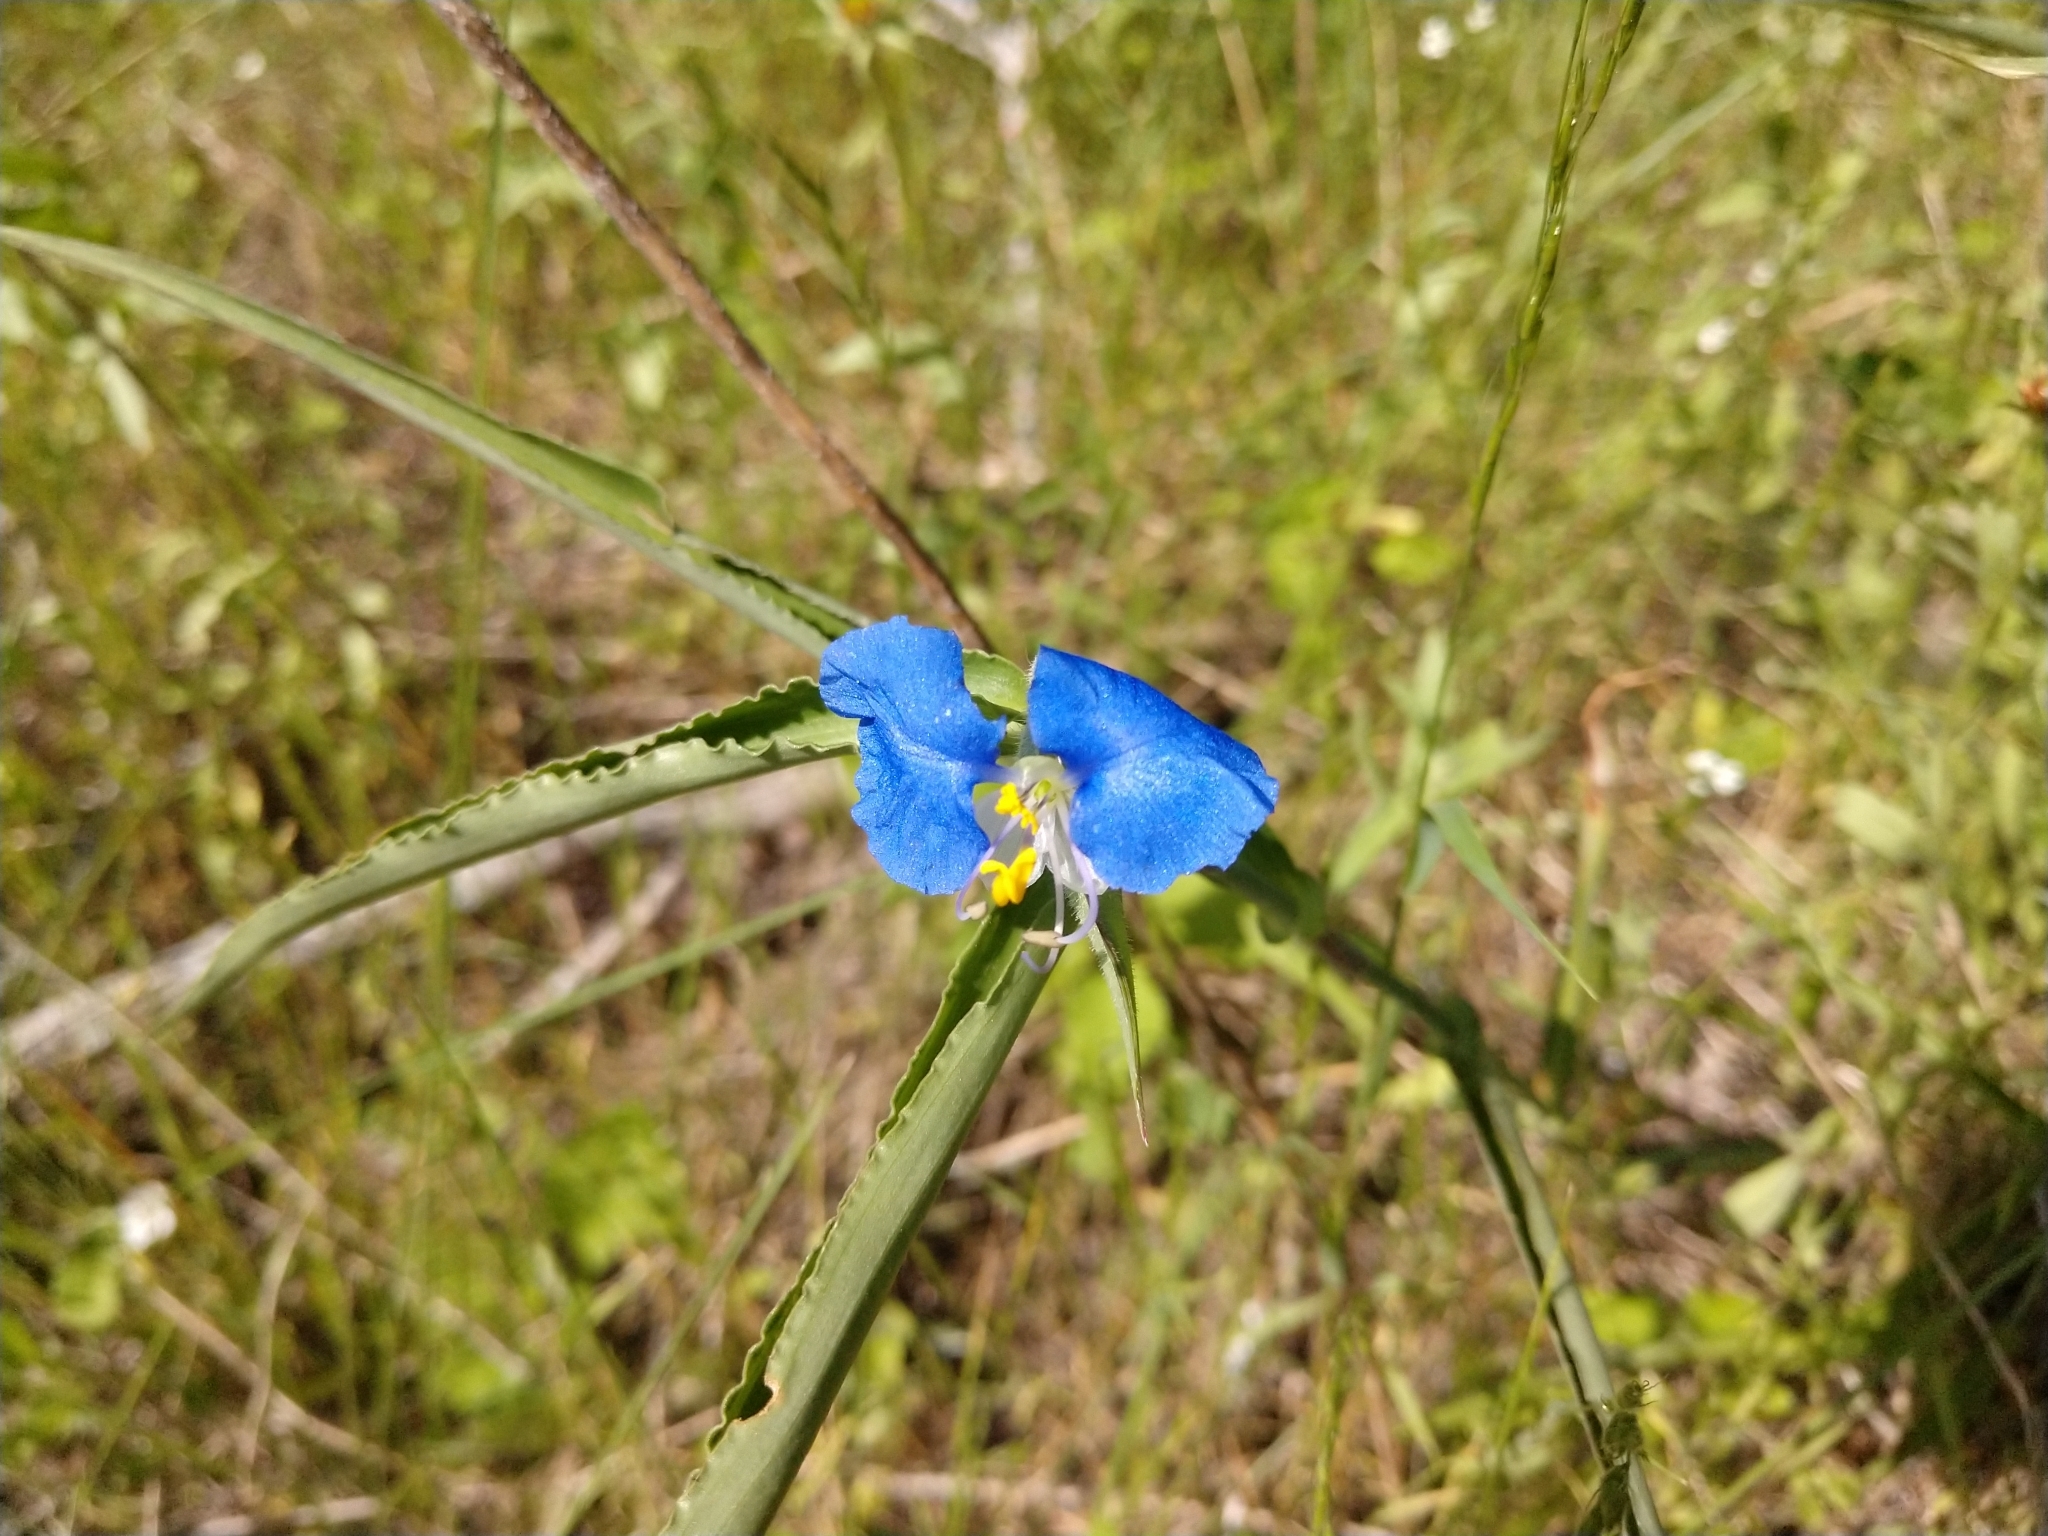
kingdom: Plantae
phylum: Tracheophyta
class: Liliopsida
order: Commelinales
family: Commelinaceae
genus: Commelina
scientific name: Commelina erecta
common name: Blousel blommetjie
